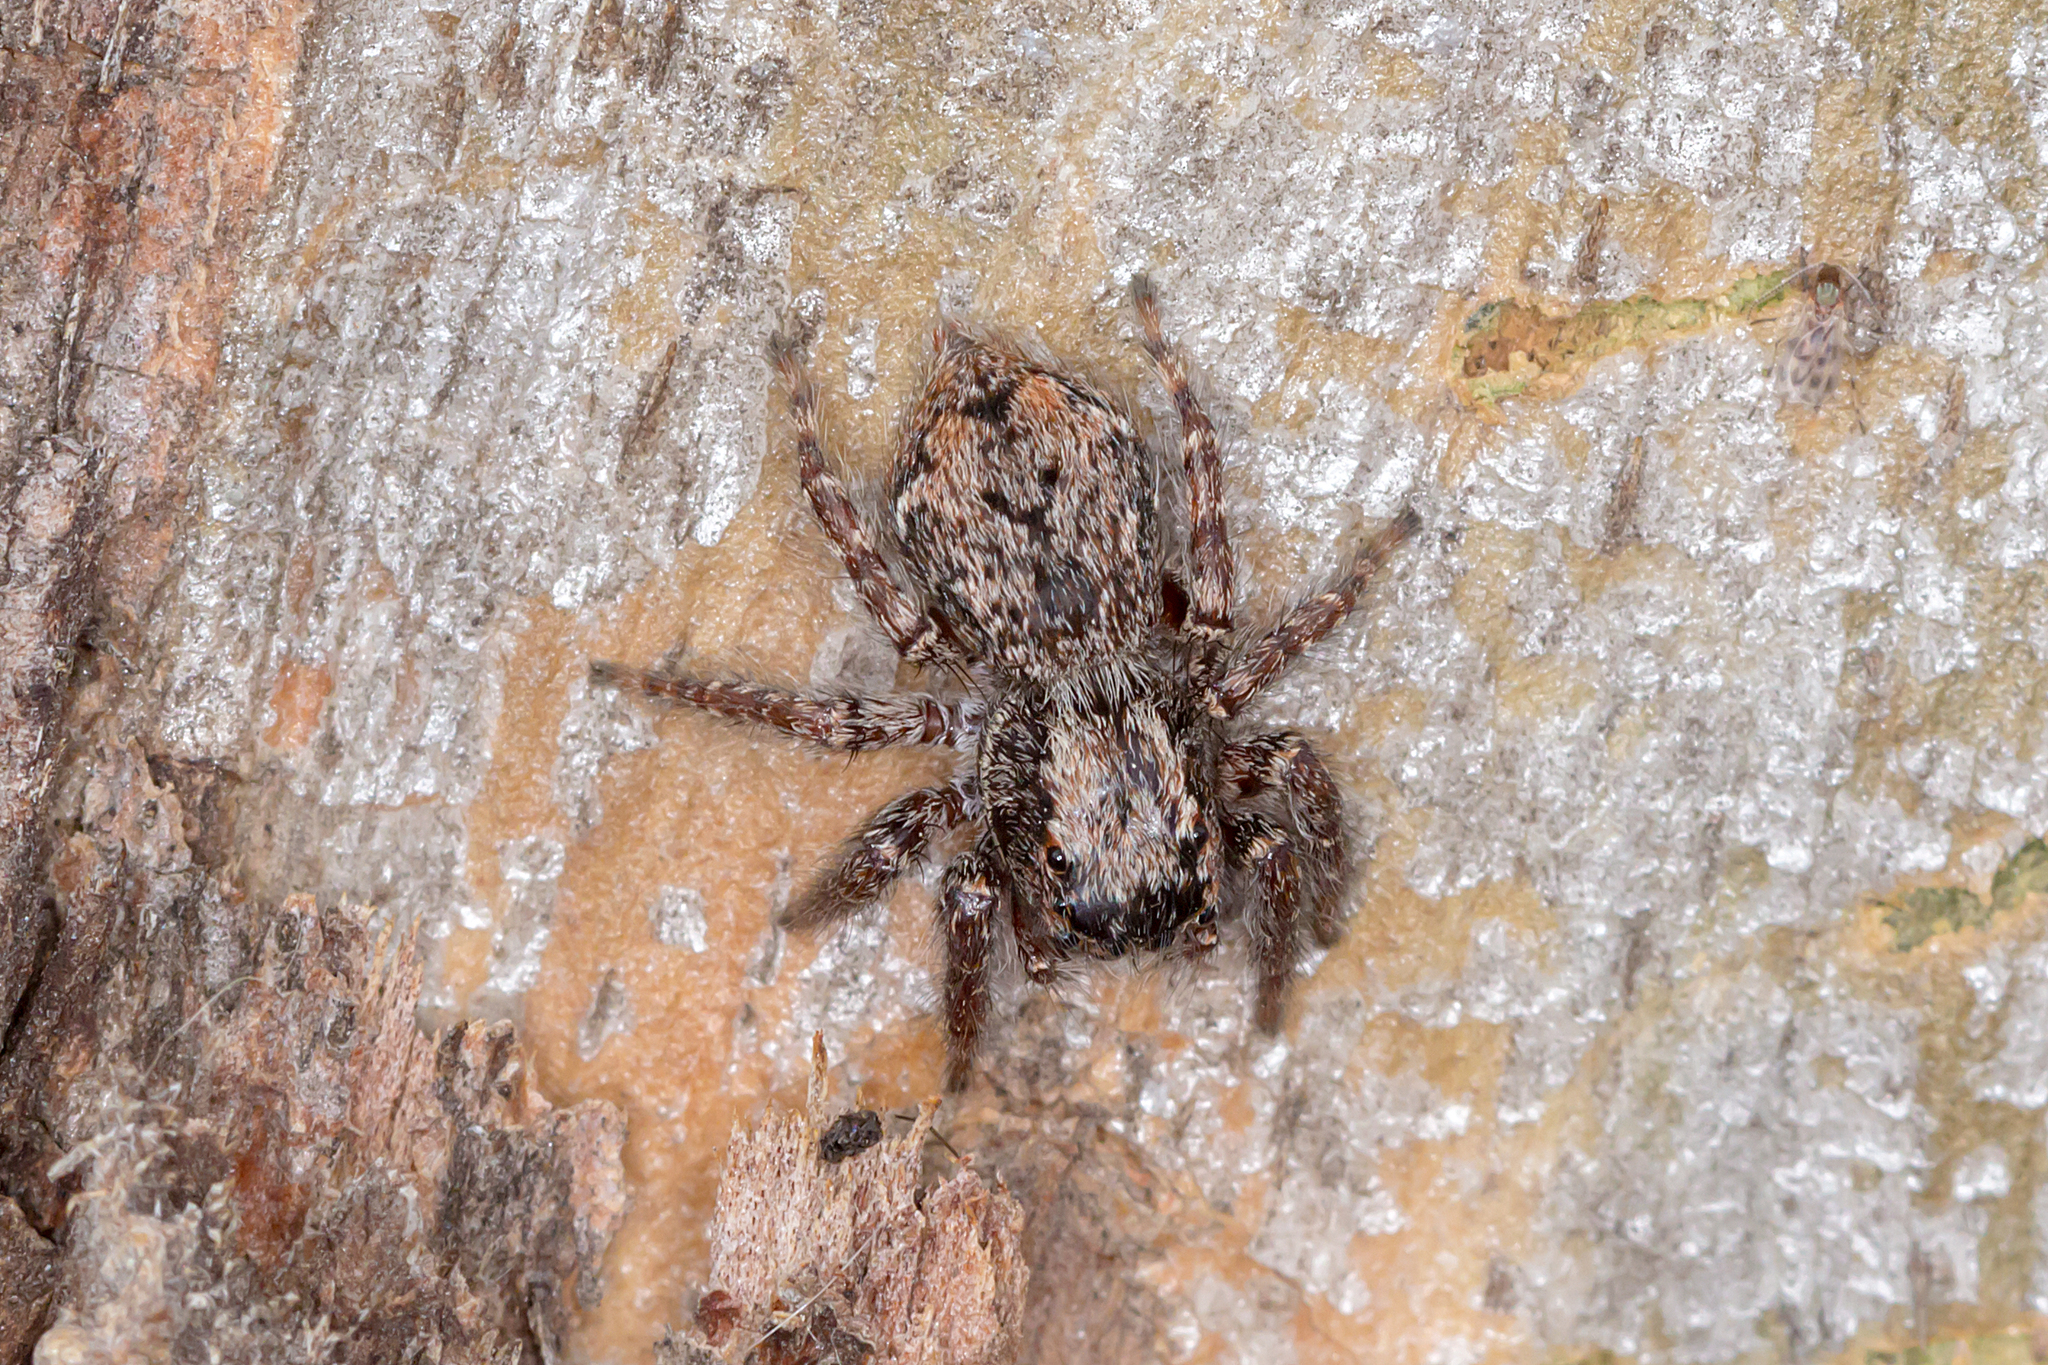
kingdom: Animalia
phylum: Arthropoda
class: Arachnida
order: Araneae
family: Salticidae
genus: Servaea
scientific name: Servaea incana
